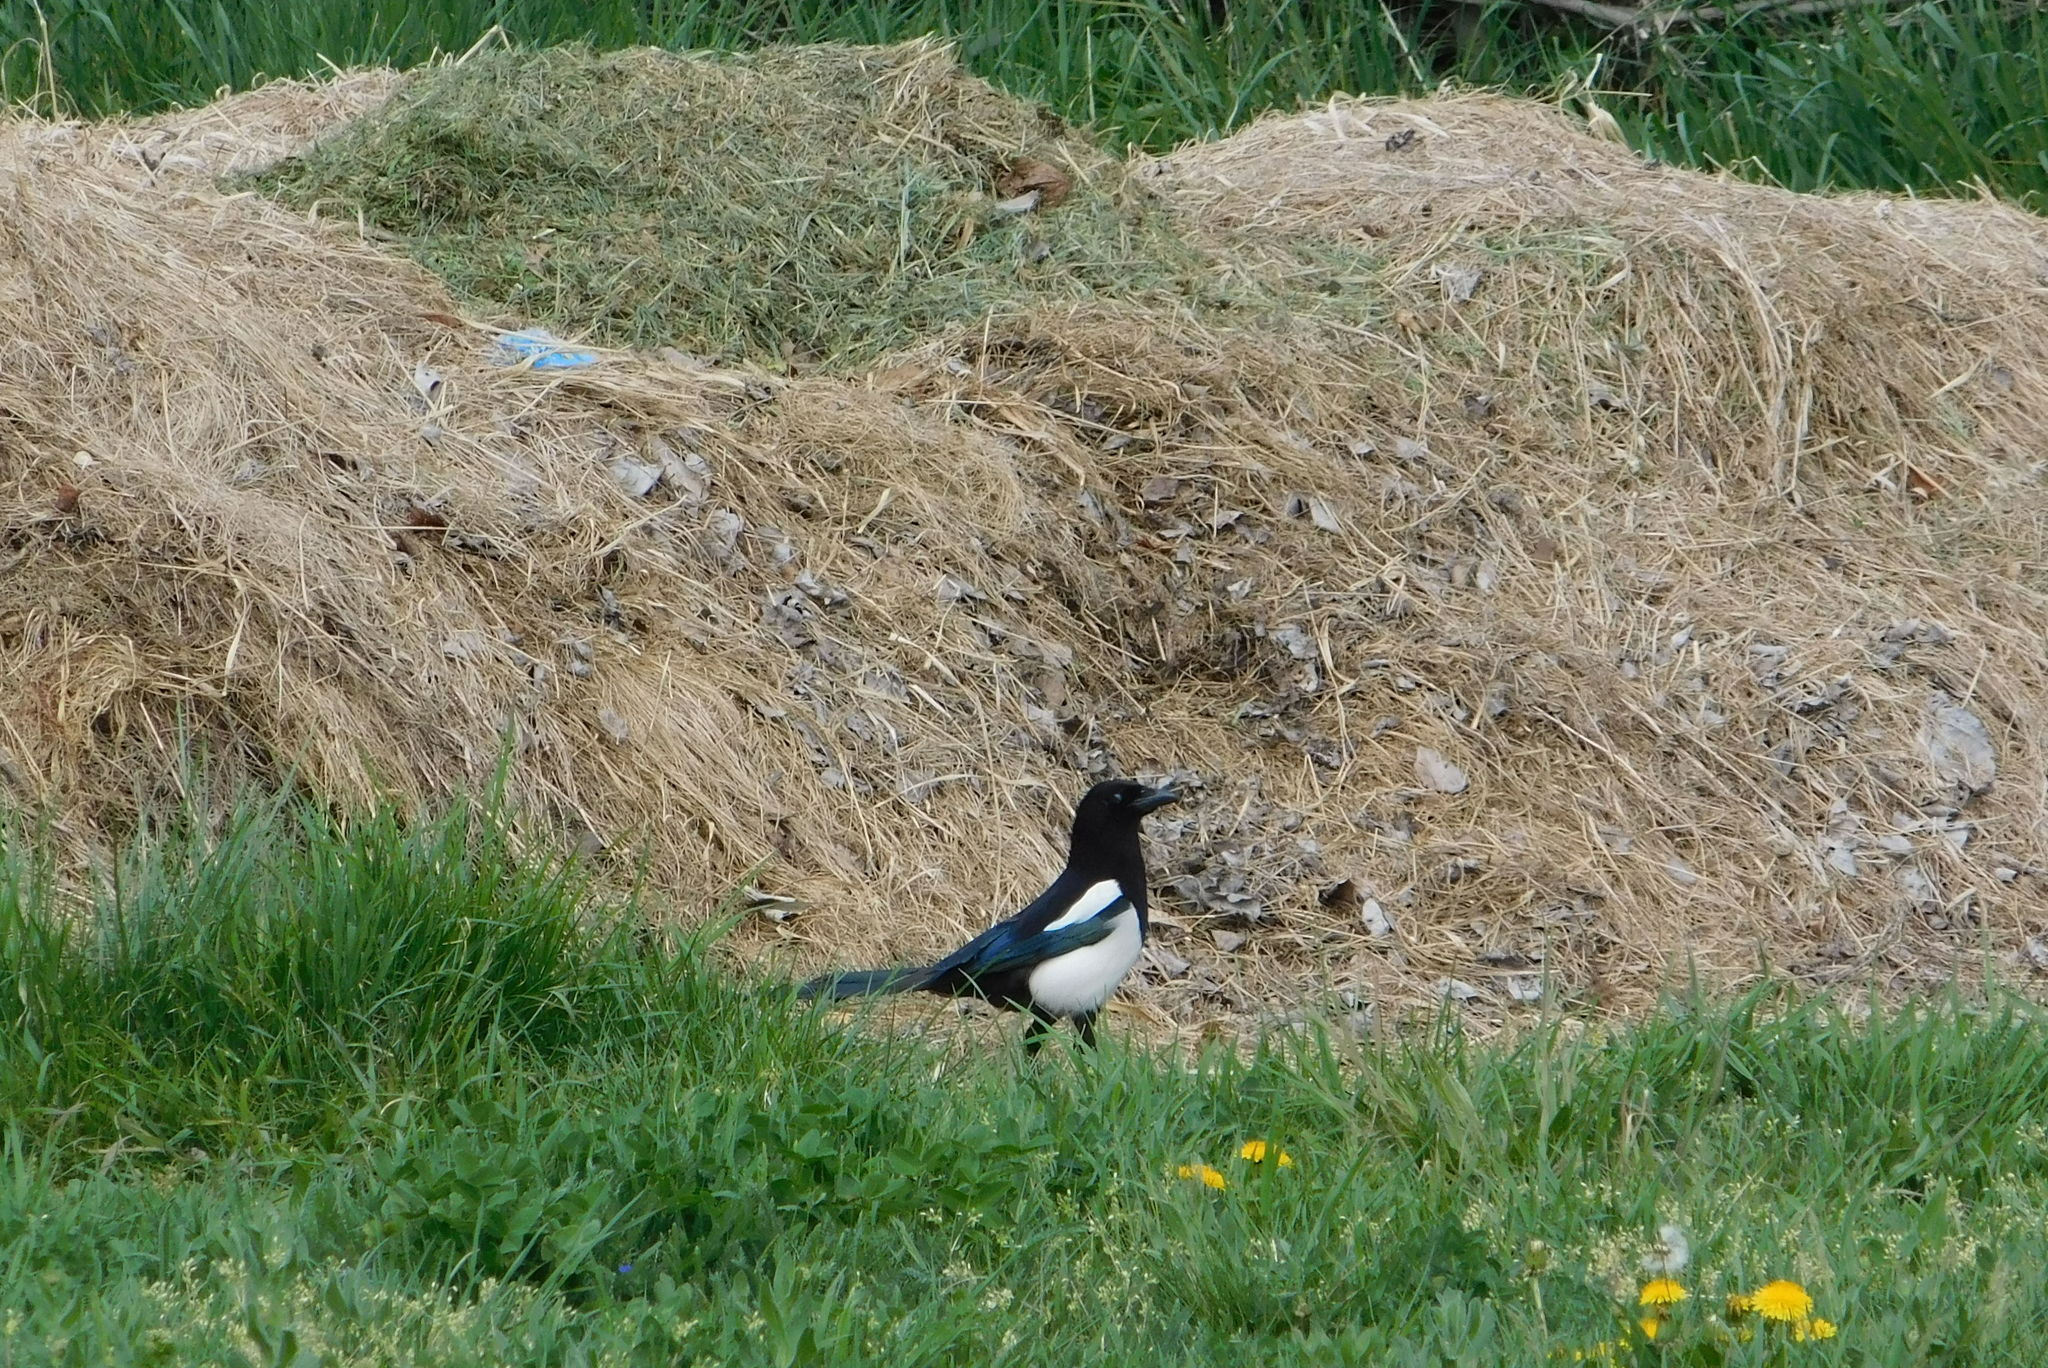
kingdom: Animalia
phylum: Chordata
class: Aves
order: Passeriformes
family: Corvidae
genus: Pica
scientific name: Pica pica
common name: Eurasian magpie
